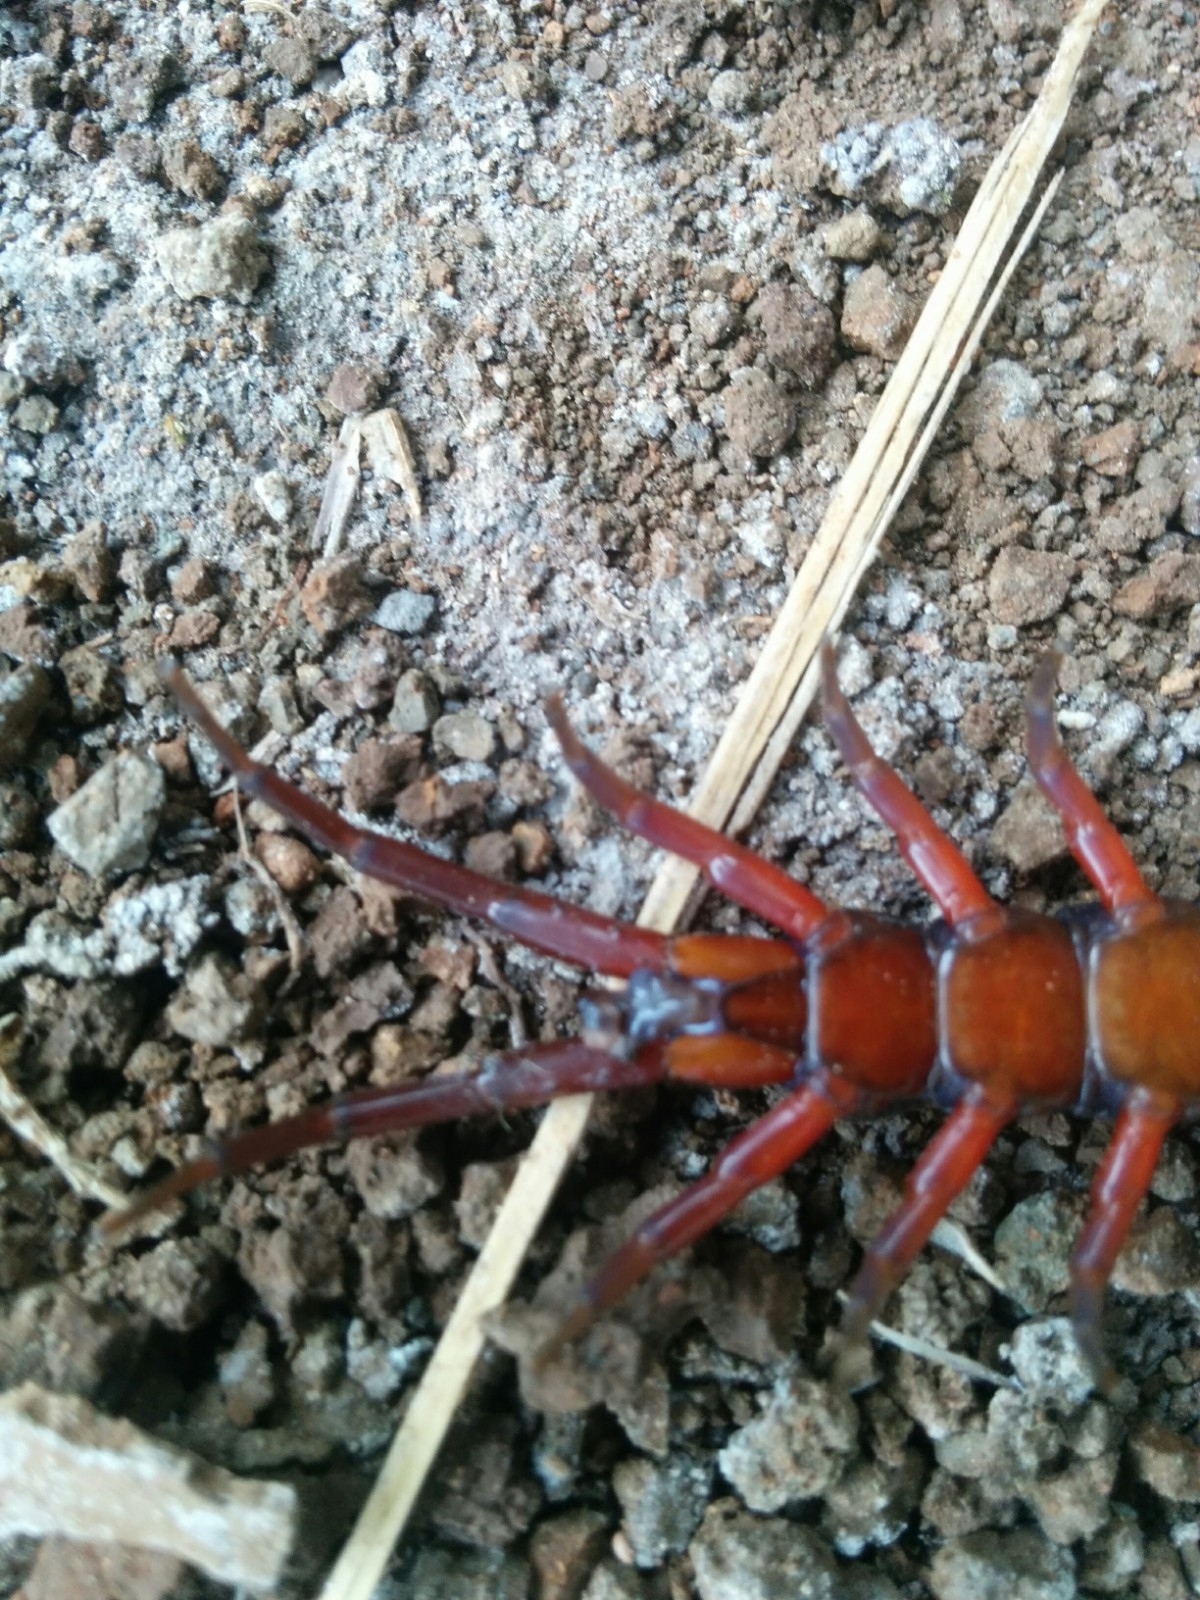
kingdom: Animalia
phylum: Arthropoda
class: Chilopoda
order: Scolopendromorpha
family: Scolopendridae
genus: Scolopendra
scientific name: Scolopendra subspinipes
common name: Centipede
